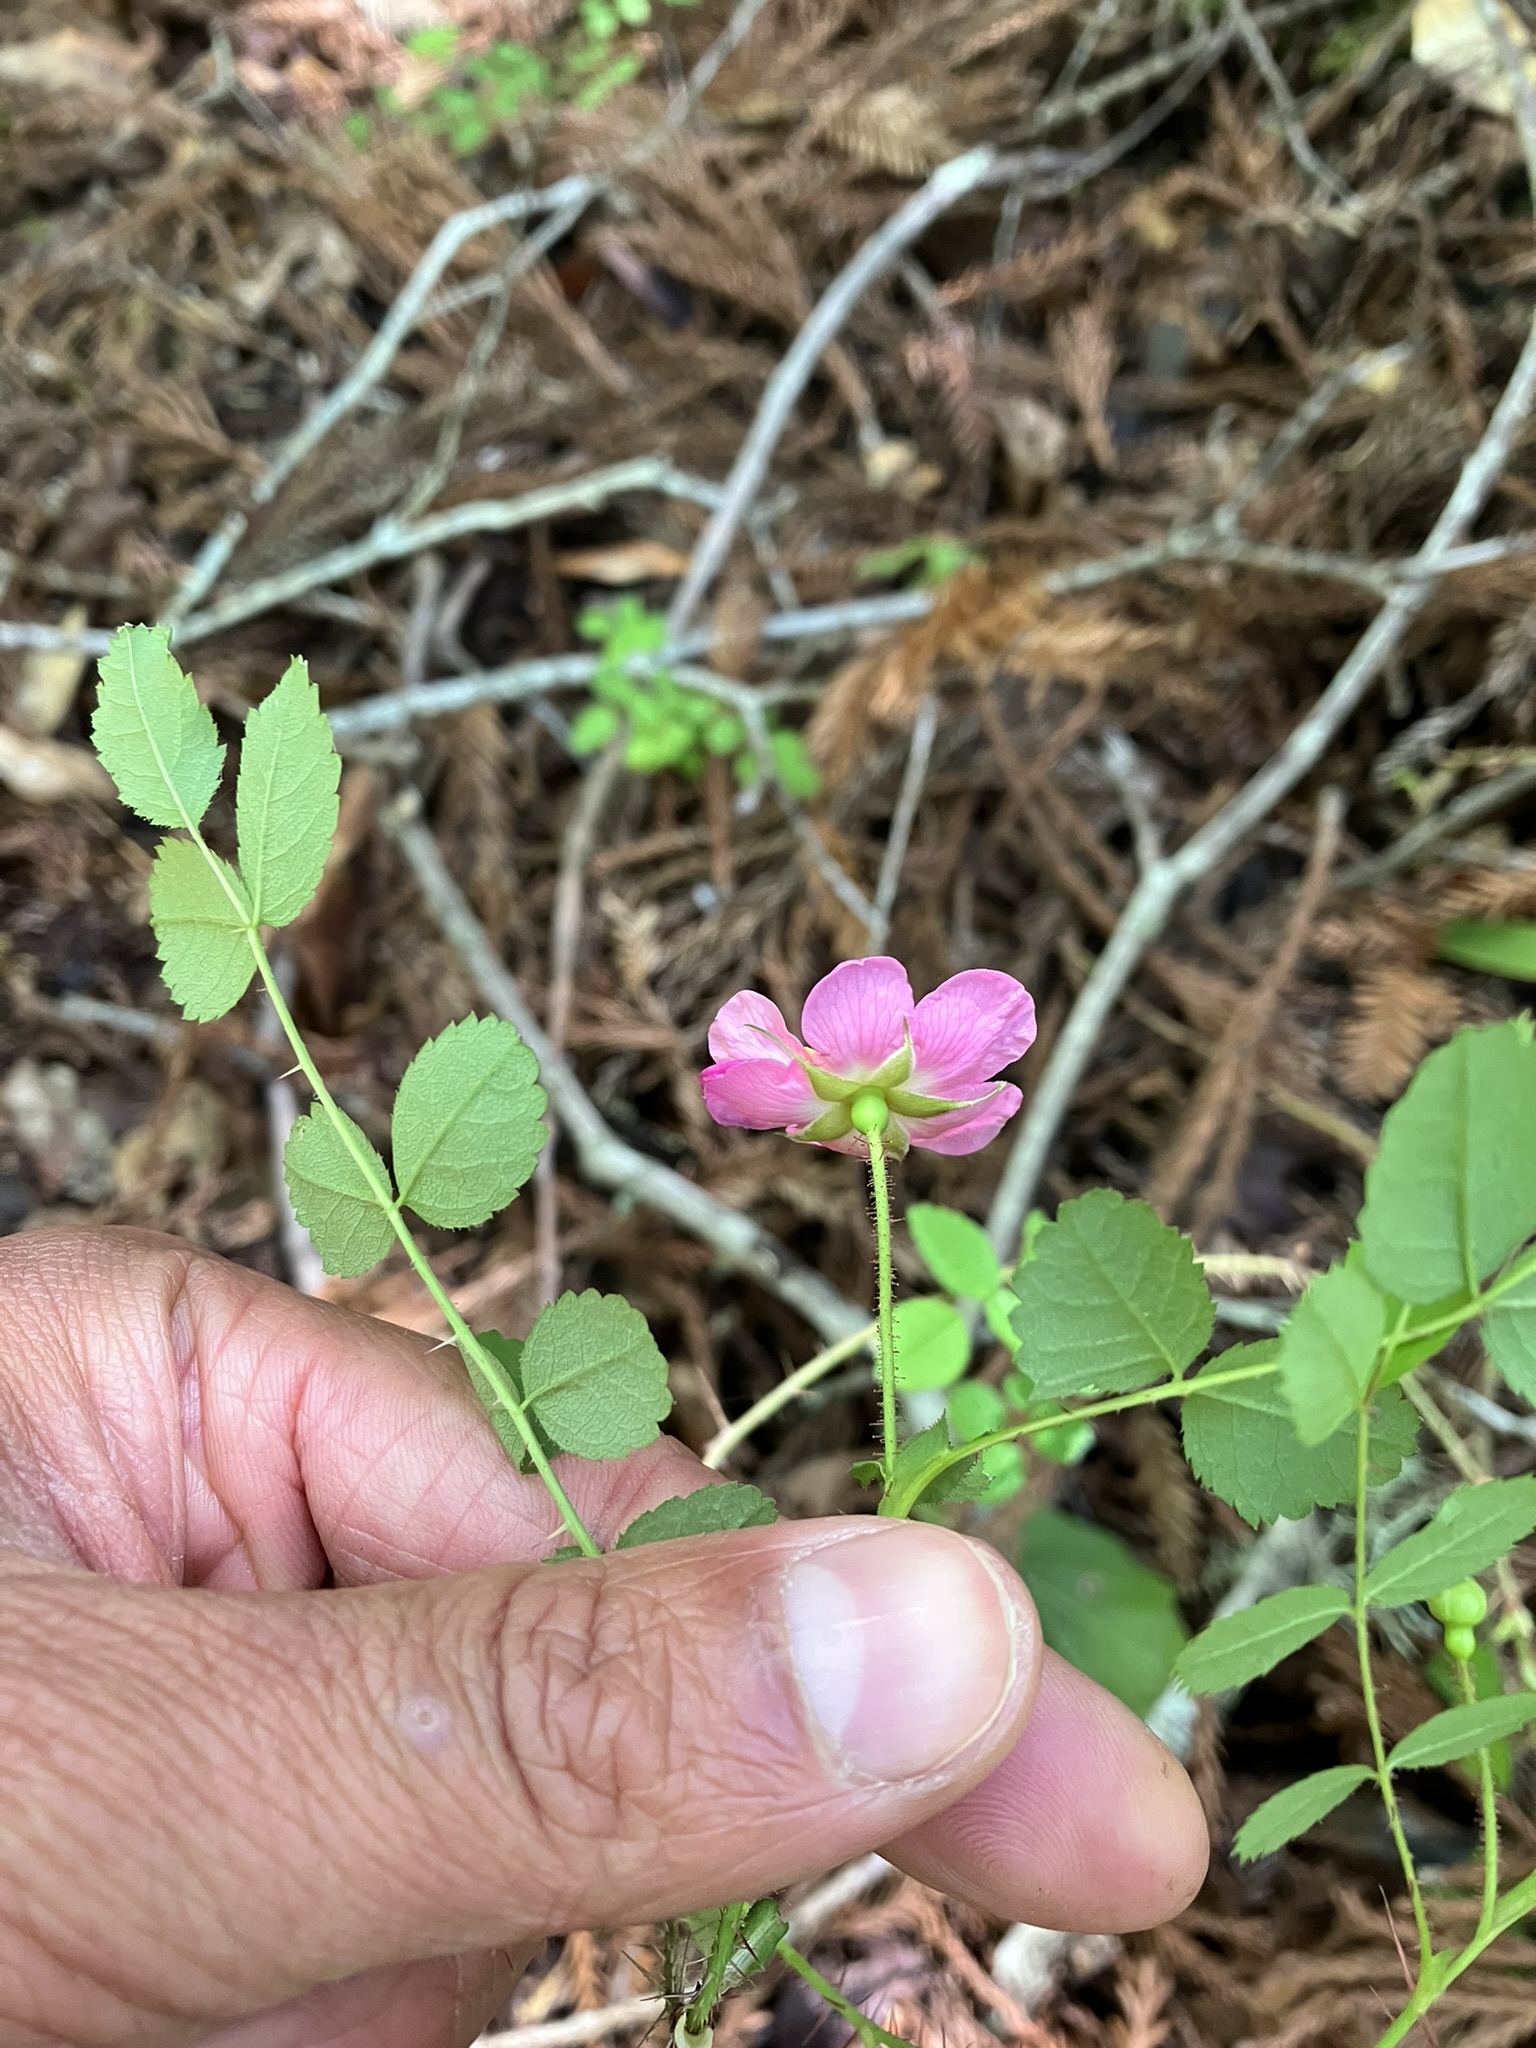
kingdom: Plantae
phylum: Tracheophyta
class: Magnoliopsida
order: Rosales
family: Rosaceae
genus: Rosa
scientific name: Rosa gymnocarpa
